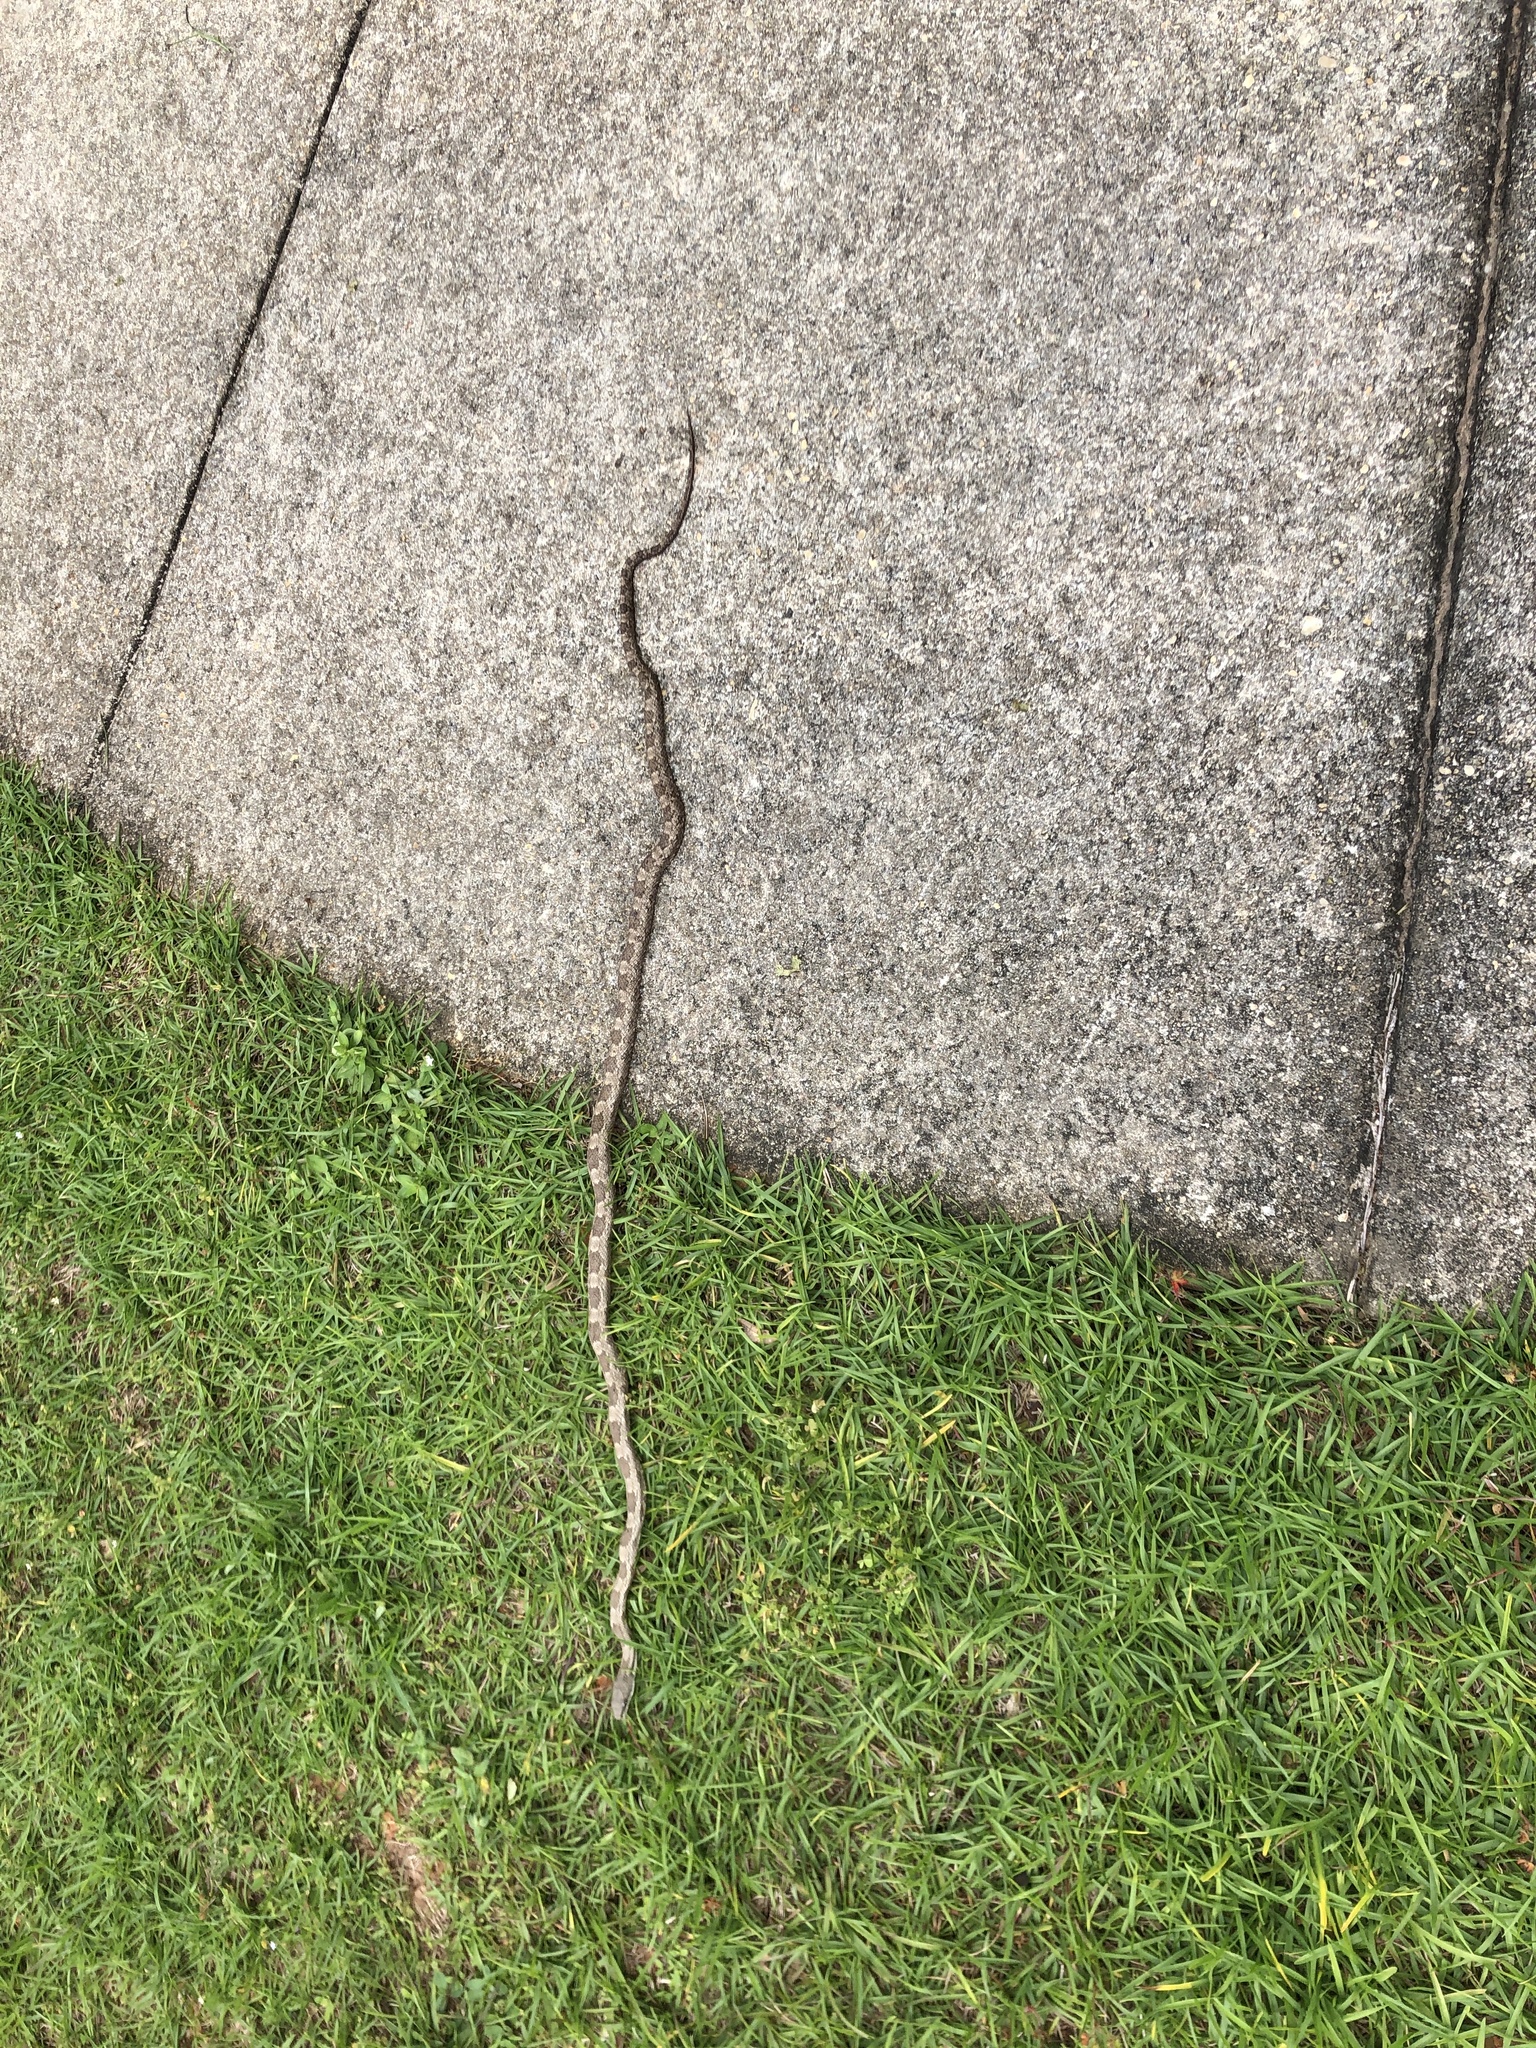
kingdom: Animalia
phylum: Chordata
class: Squamata
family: Colubridae
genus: Pantherophis
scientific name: Pantherophis spiloides
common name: Gray rat snake
